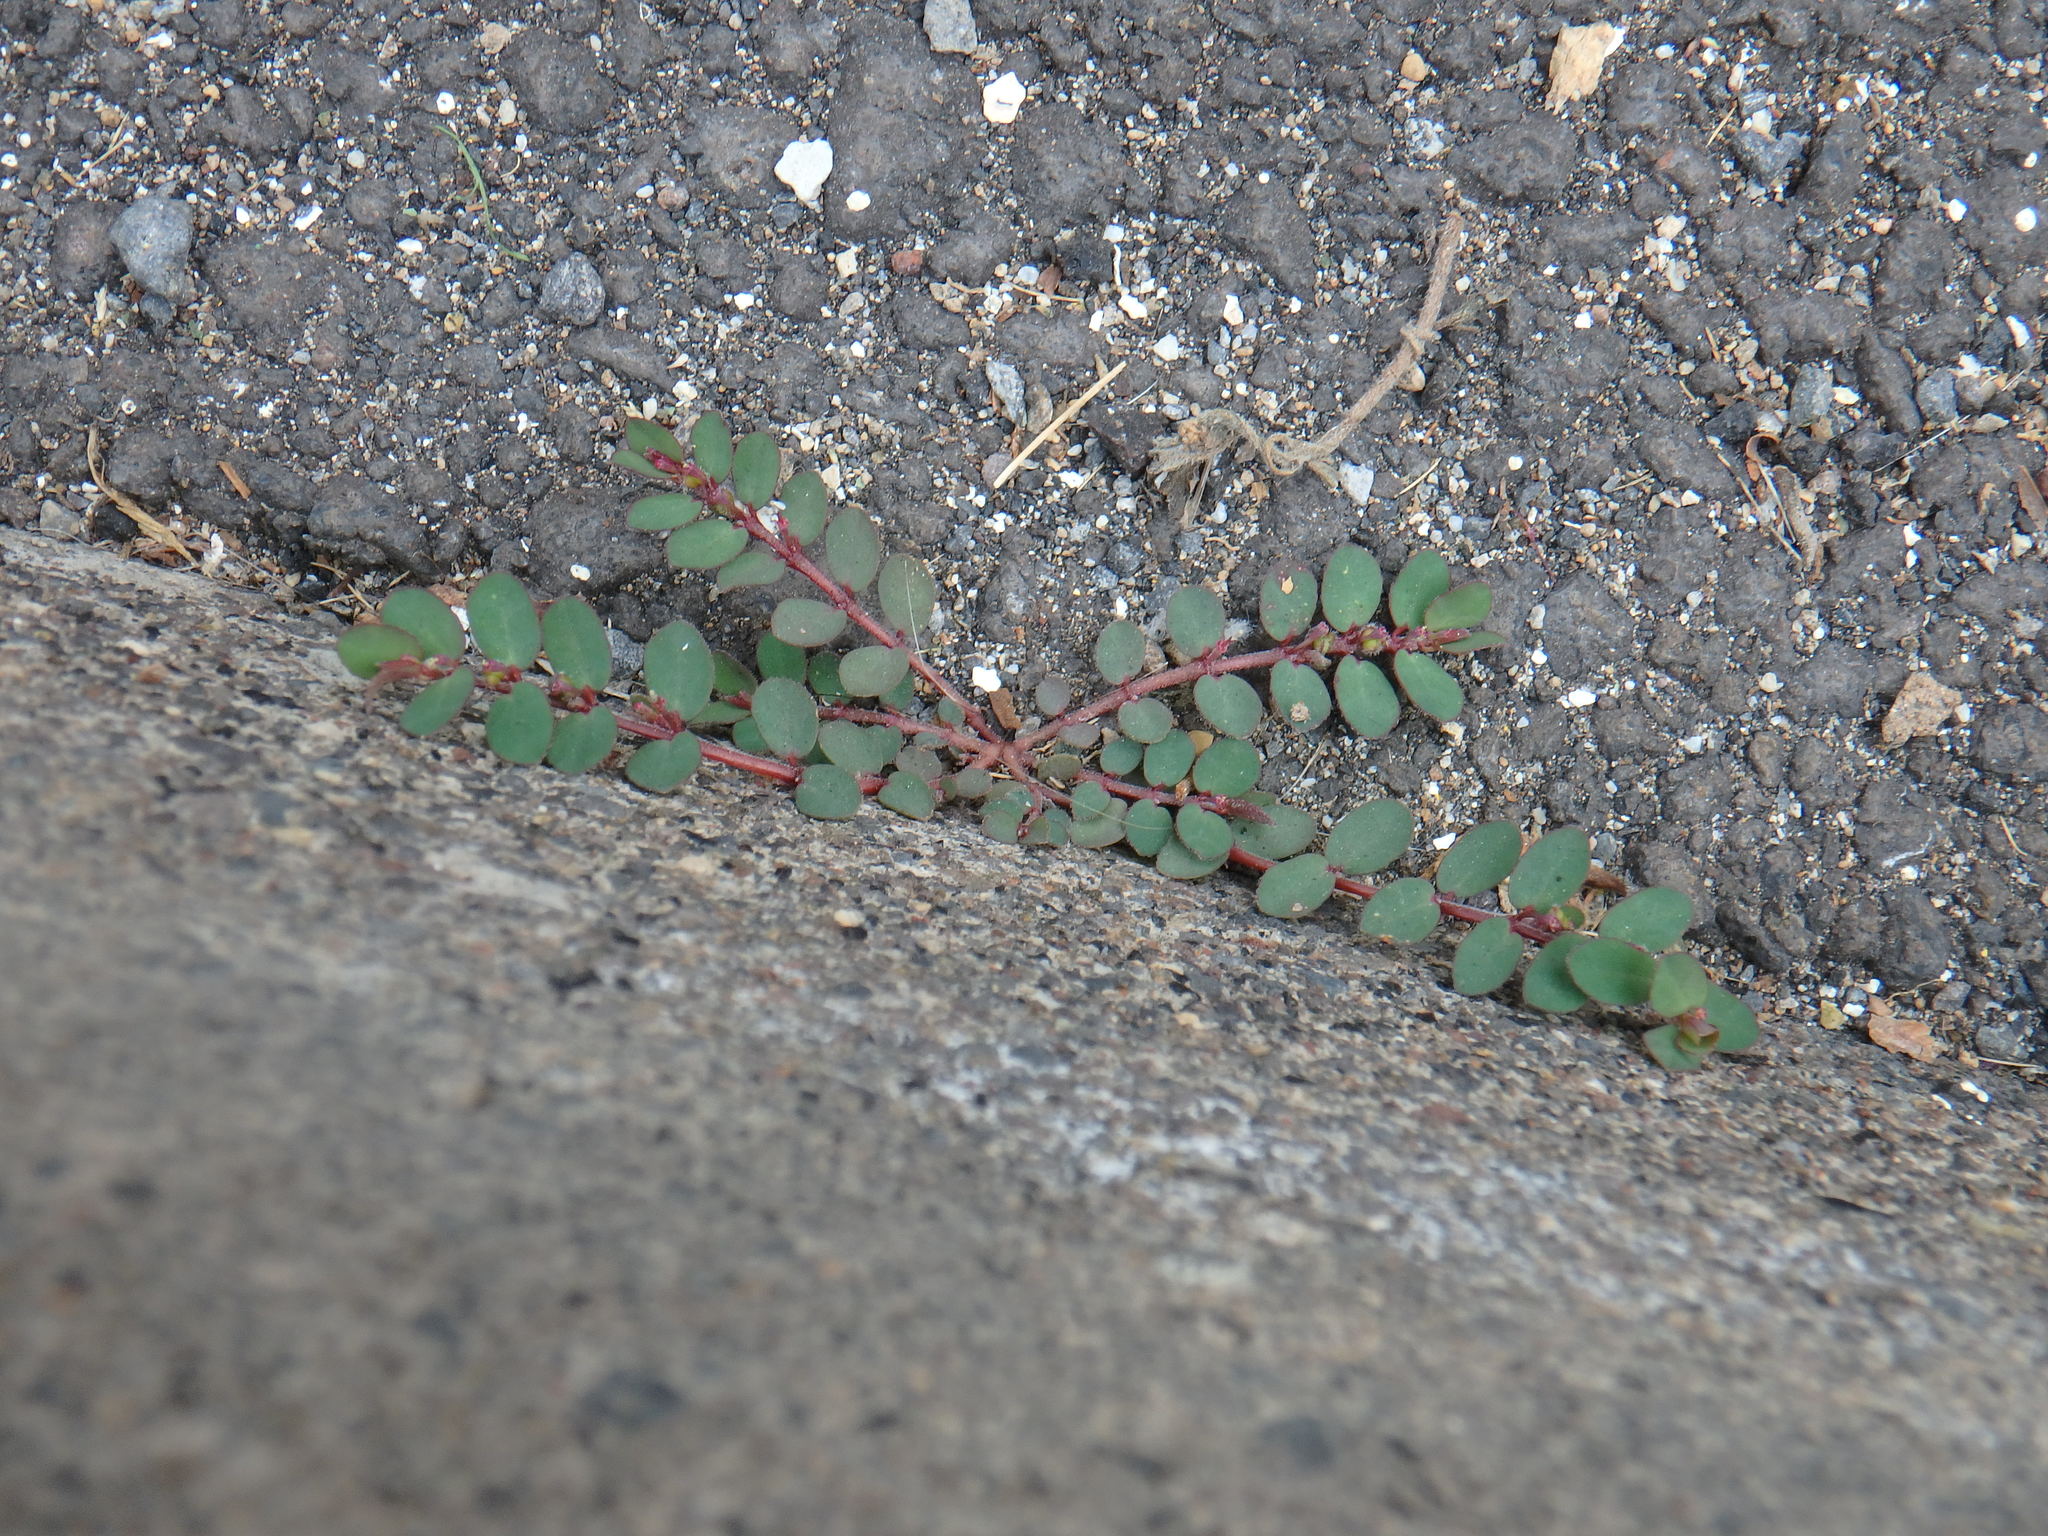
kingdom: Plantae
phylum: Tracheophyta
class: Magnoliopsida
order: Malpighiales
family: Euphorbiaceae
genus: Euphorbia
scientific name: Euphorbia prostrata
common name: Prostrate sandmat
